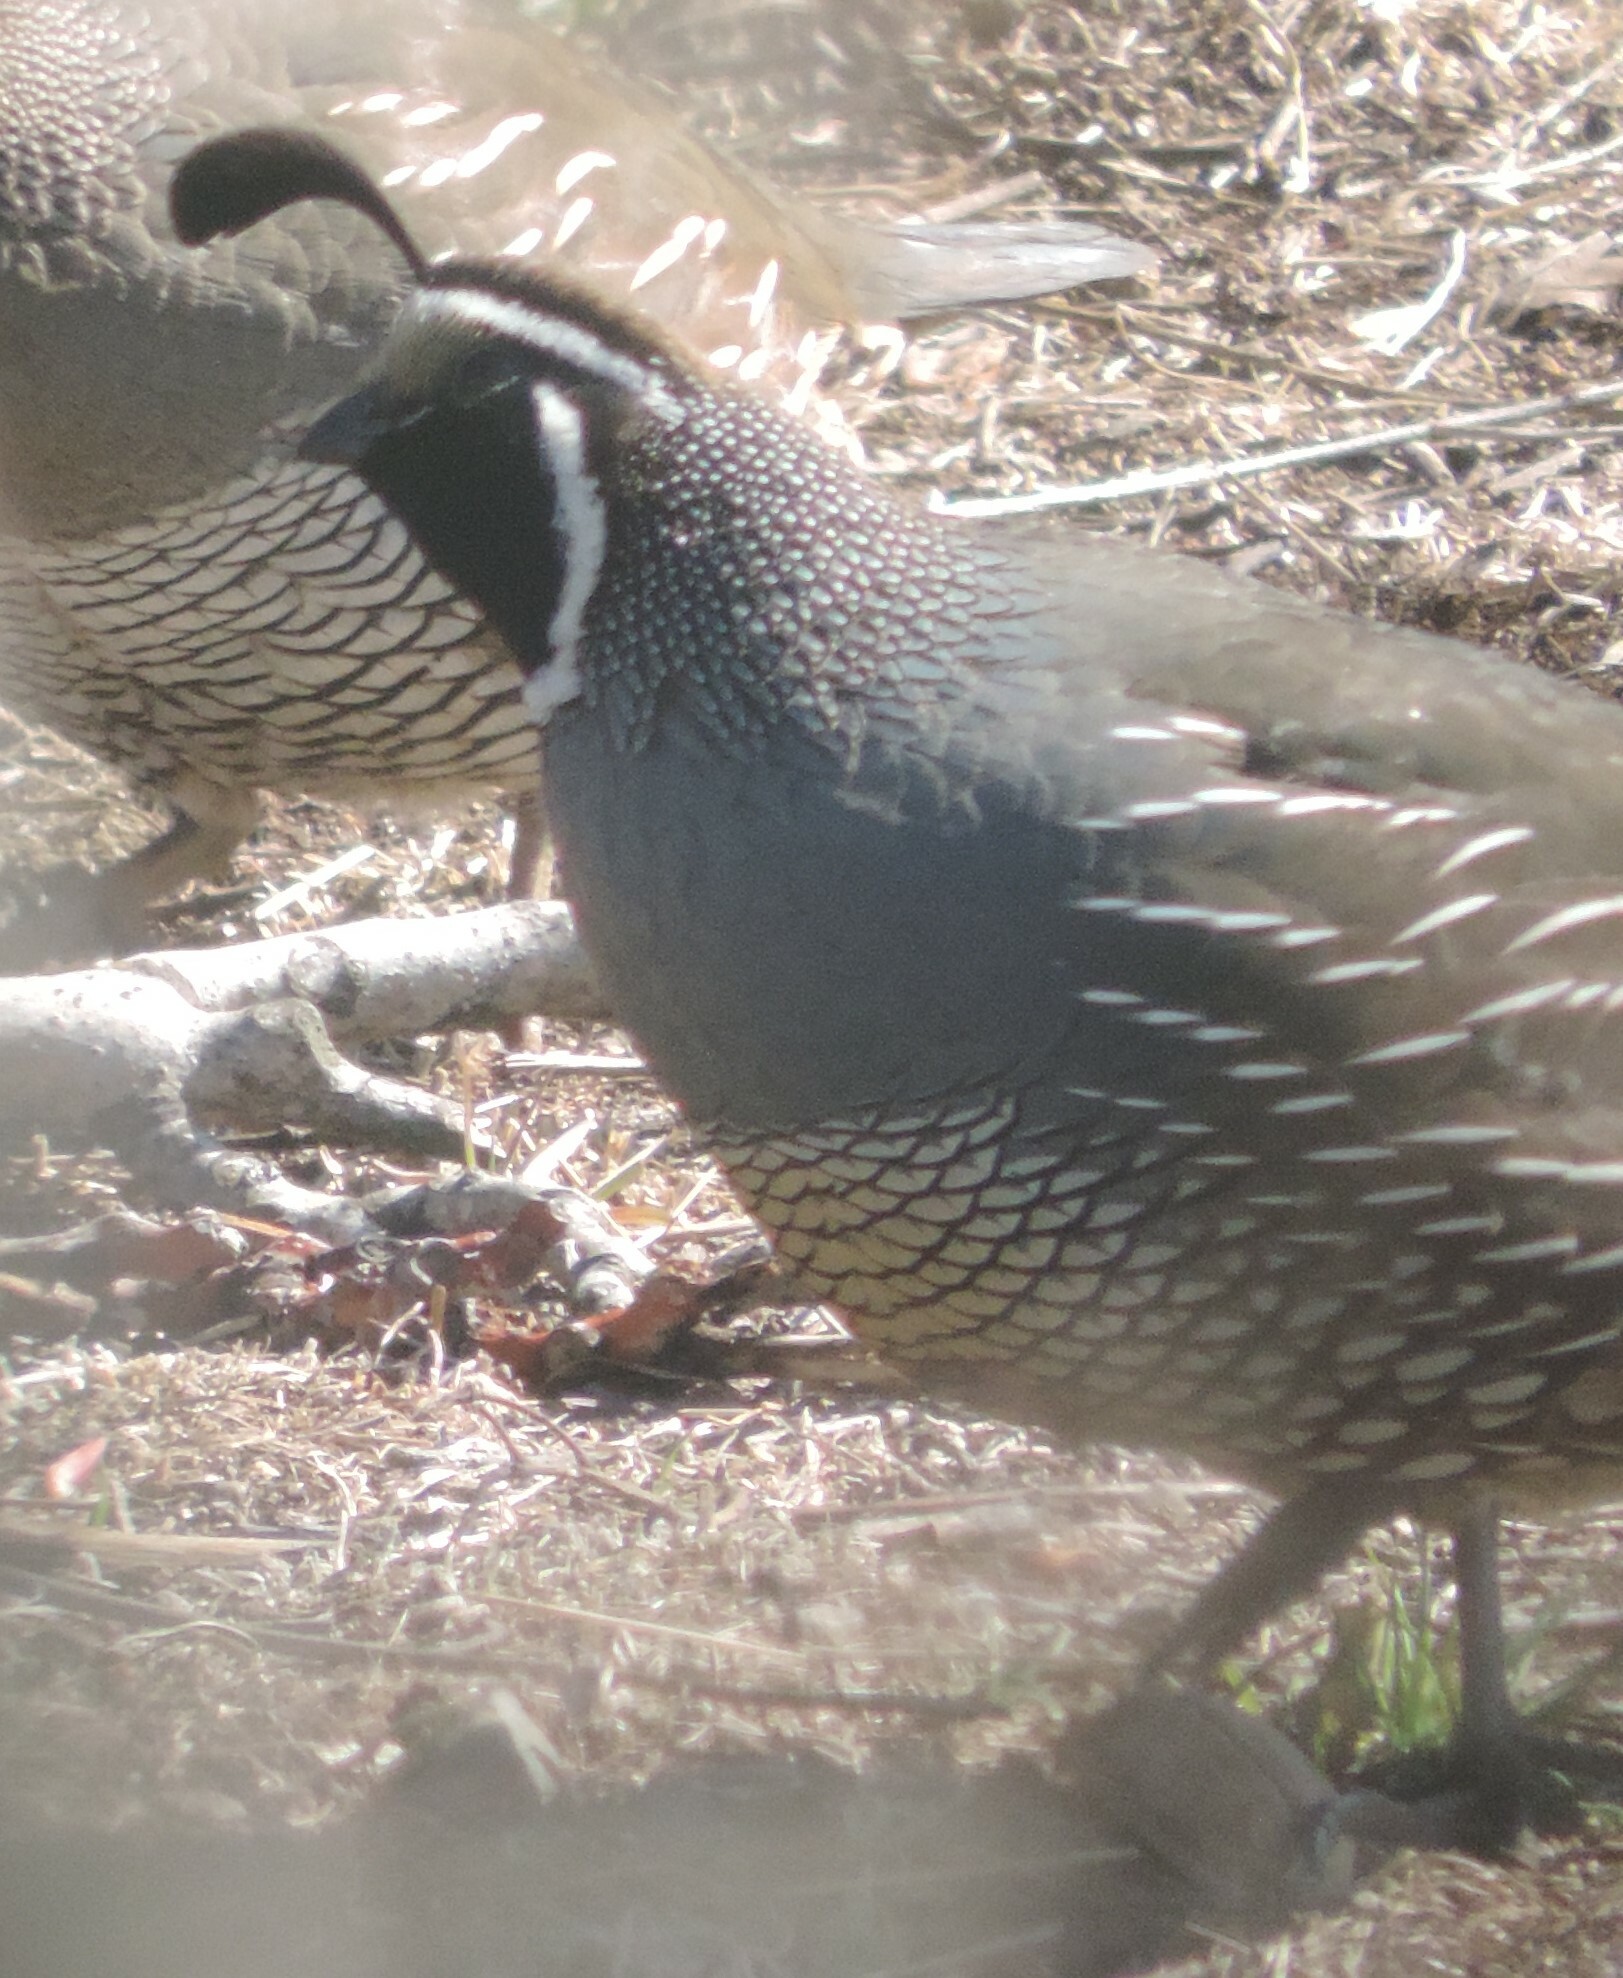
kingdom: Animalia
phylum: Chordata
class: Aves
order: Galliformes
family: Odontophoridae
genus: Callipepla
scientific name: Callipepla californica
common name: California quail
